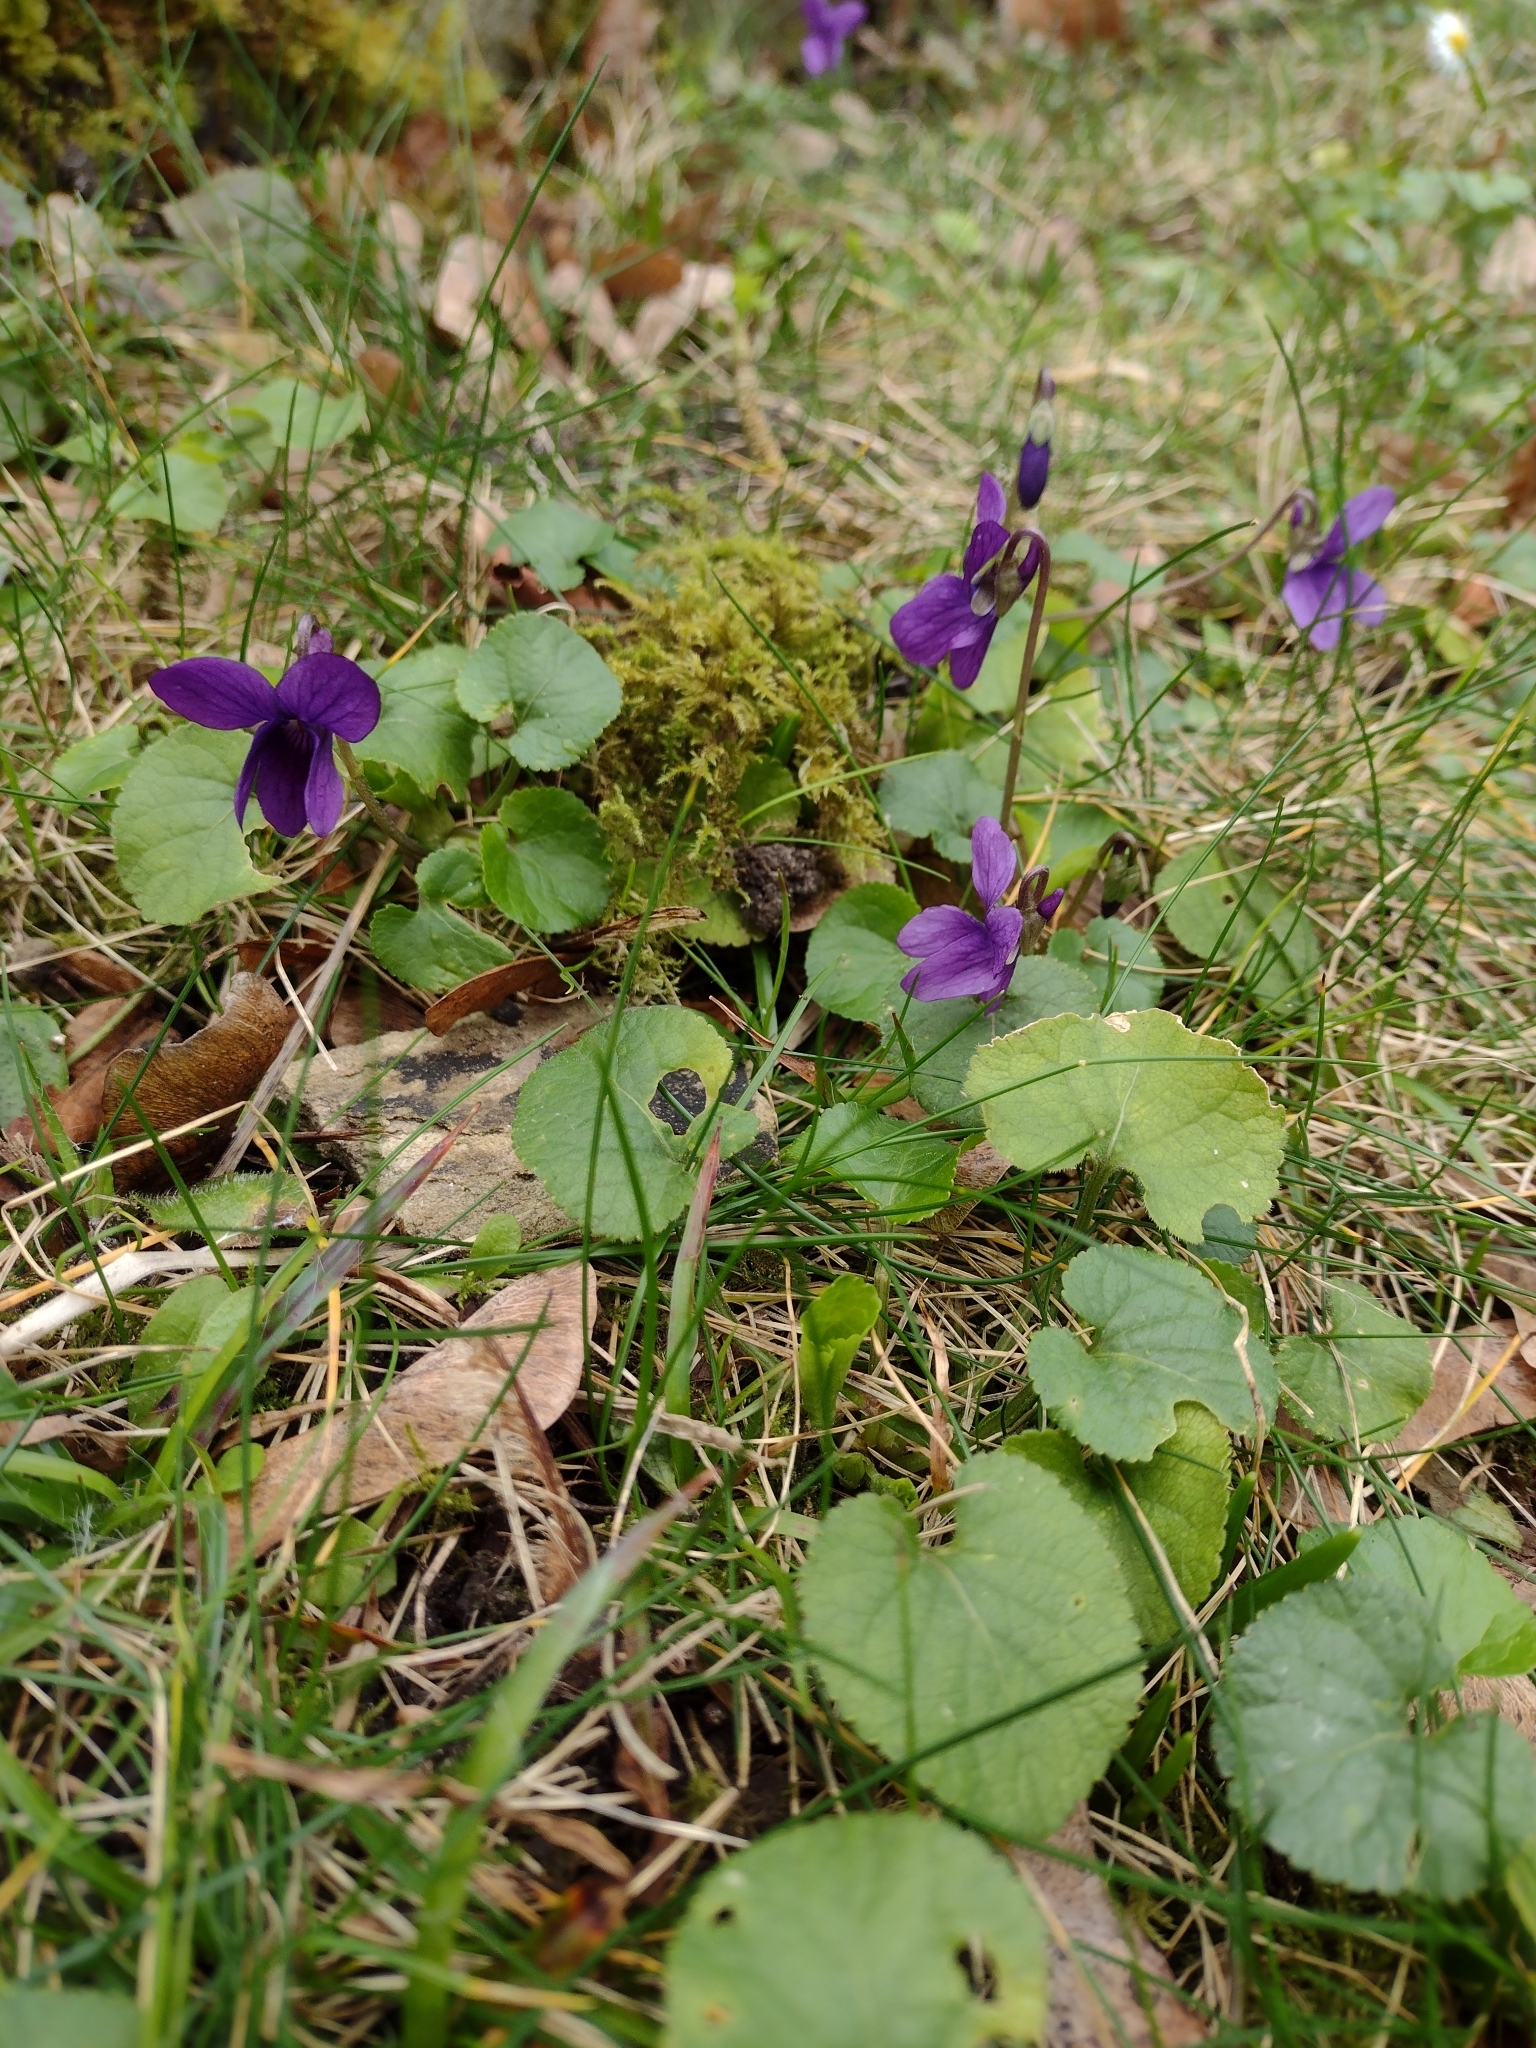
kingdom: Plantae
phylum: Tracheophyta
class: Magnoliopsida
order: Malpighiales
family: Violaceae
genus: Viola
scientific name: Viola odorata
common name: Sweet violet
